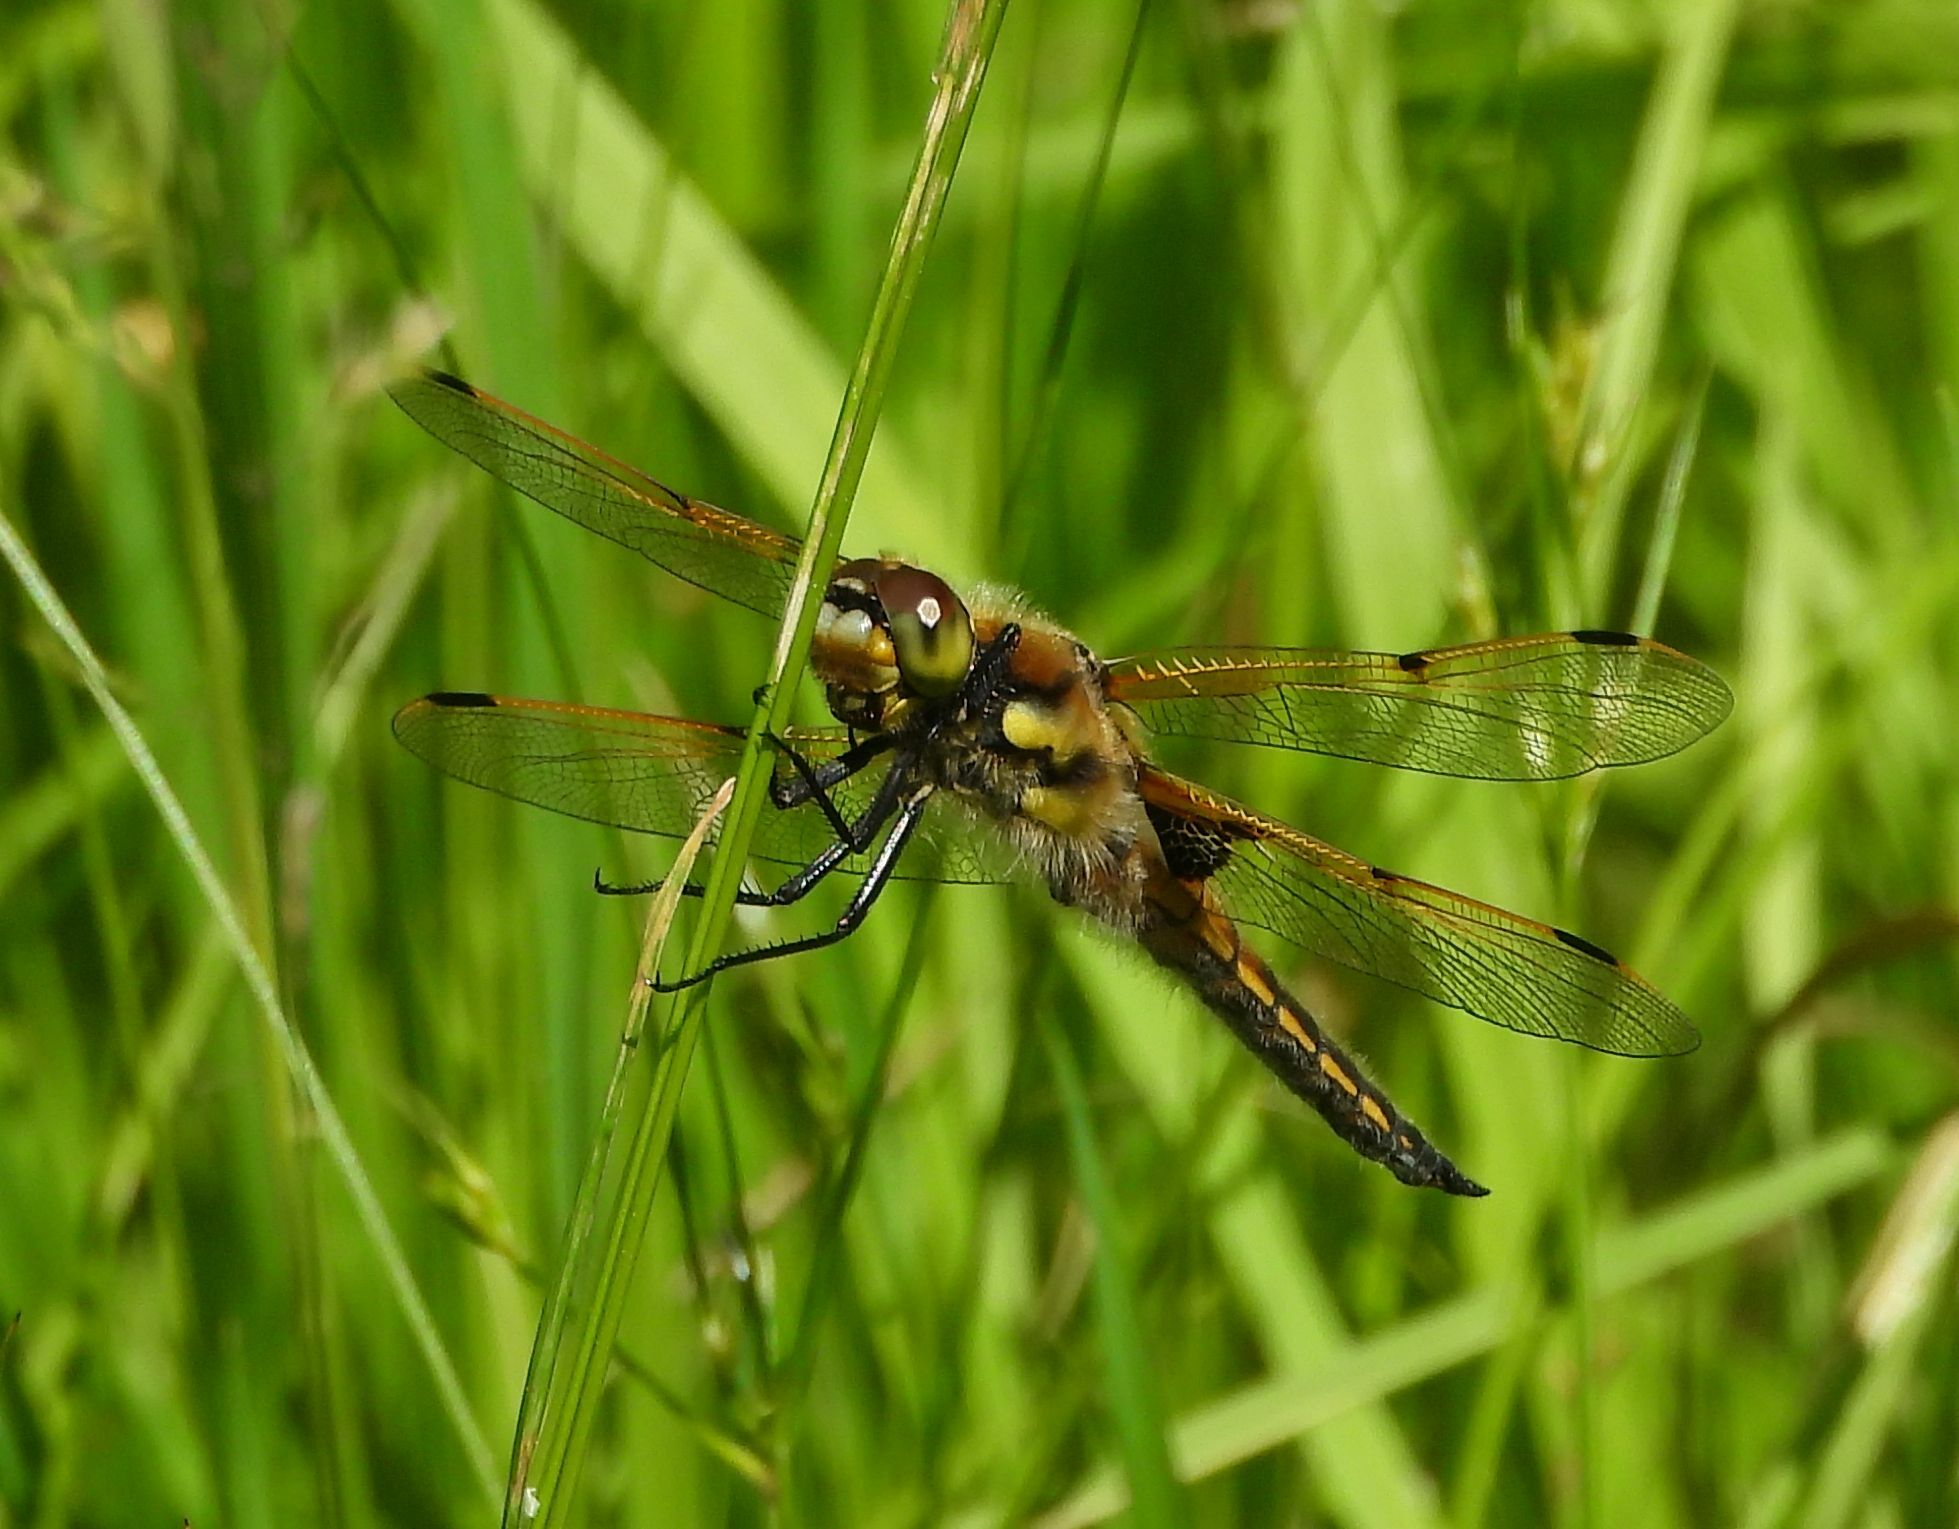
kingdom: Animalia
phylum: Arthropoda
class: Insecta
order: Odonata
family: Libellulidae
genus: Libellula
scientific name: Libellula quadrimaculata
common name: Four-spotted chaser
